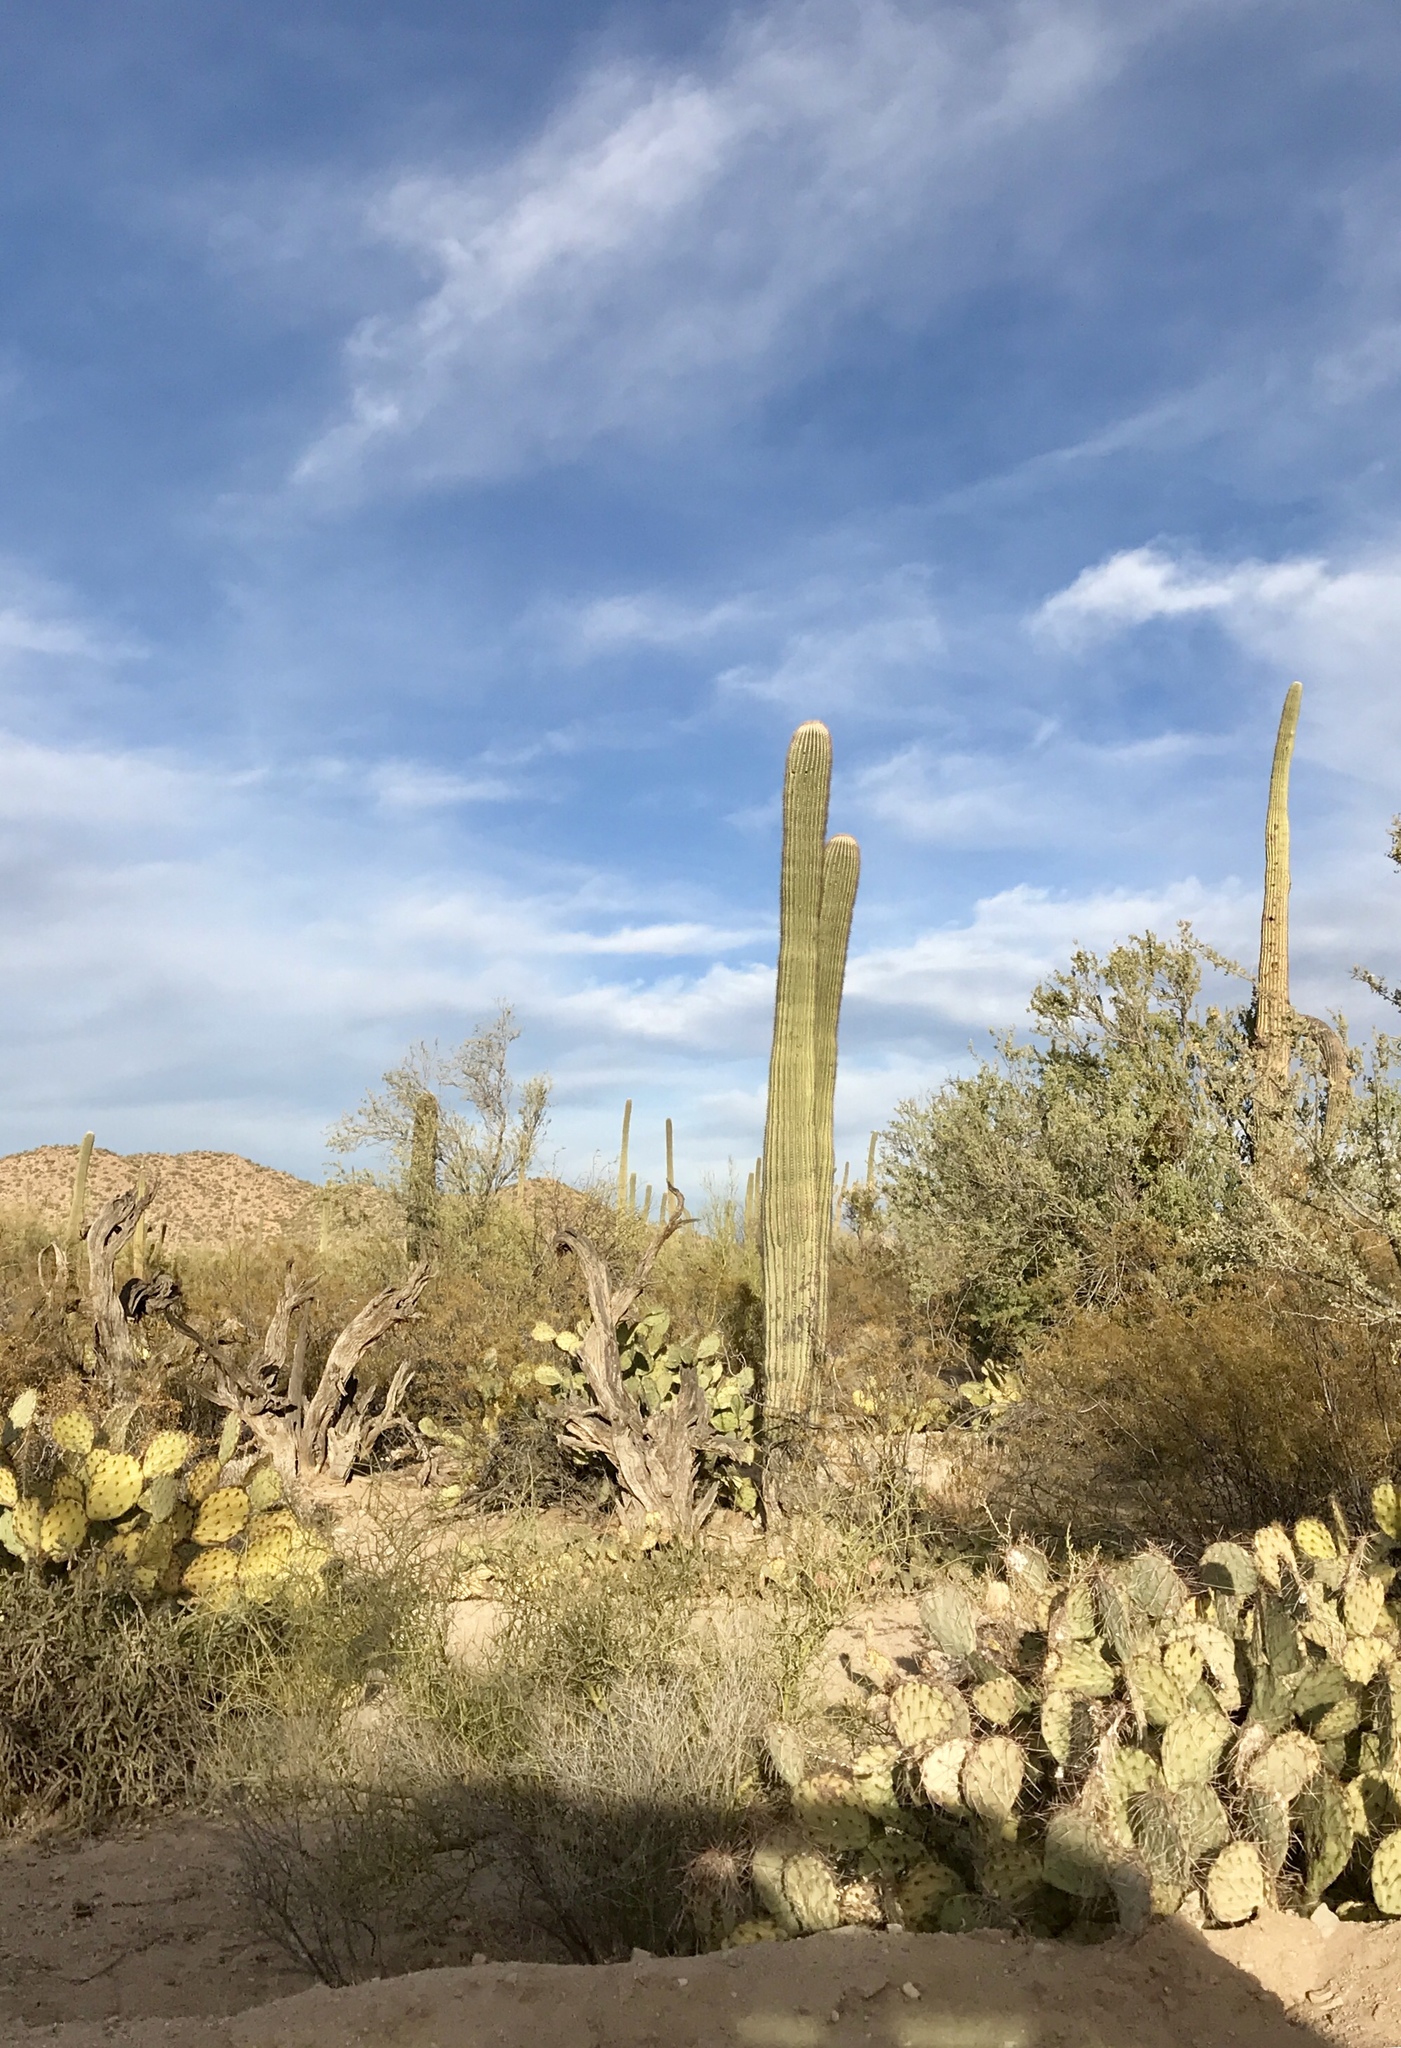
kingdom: Plantae
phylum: Tracheophyta
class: Magnoliopsida
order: Caryophyllales
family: Cactaceae
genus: Carnegiea
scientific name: Carnegiea gigantea
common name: Saguaro
